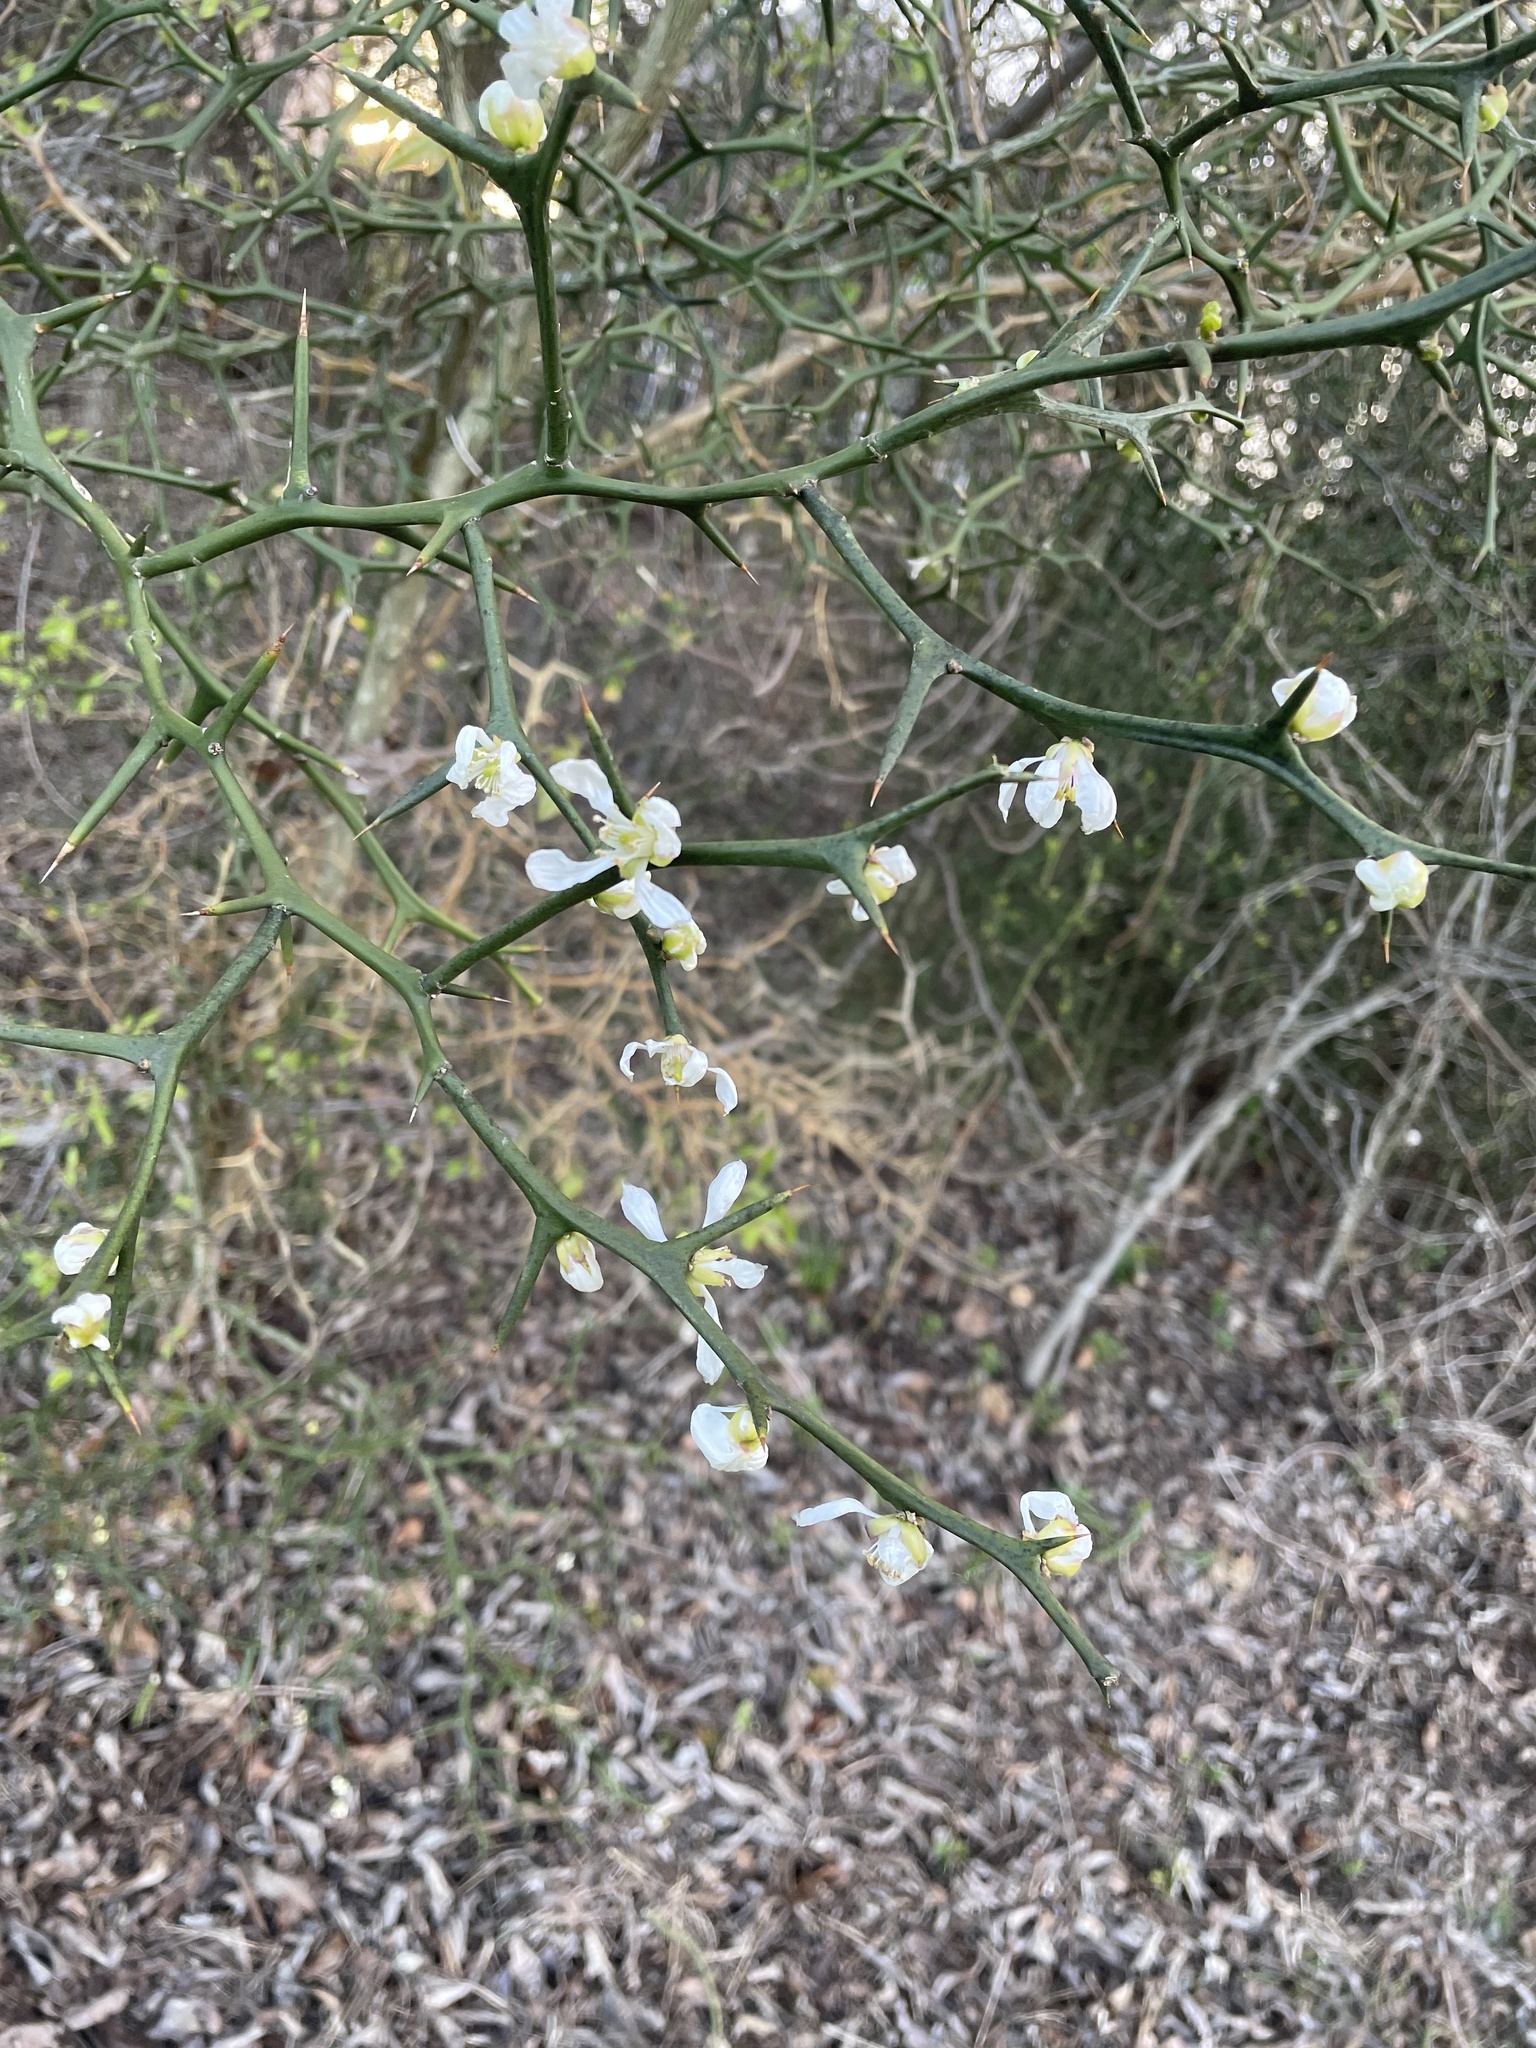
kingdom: Plantae
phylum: Tracheophyta
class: Magnoliopsida
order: Sapindales
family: Rutaceae
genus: Citrus
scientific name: Citrus trifoliata
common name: Japanese bitter-orange
